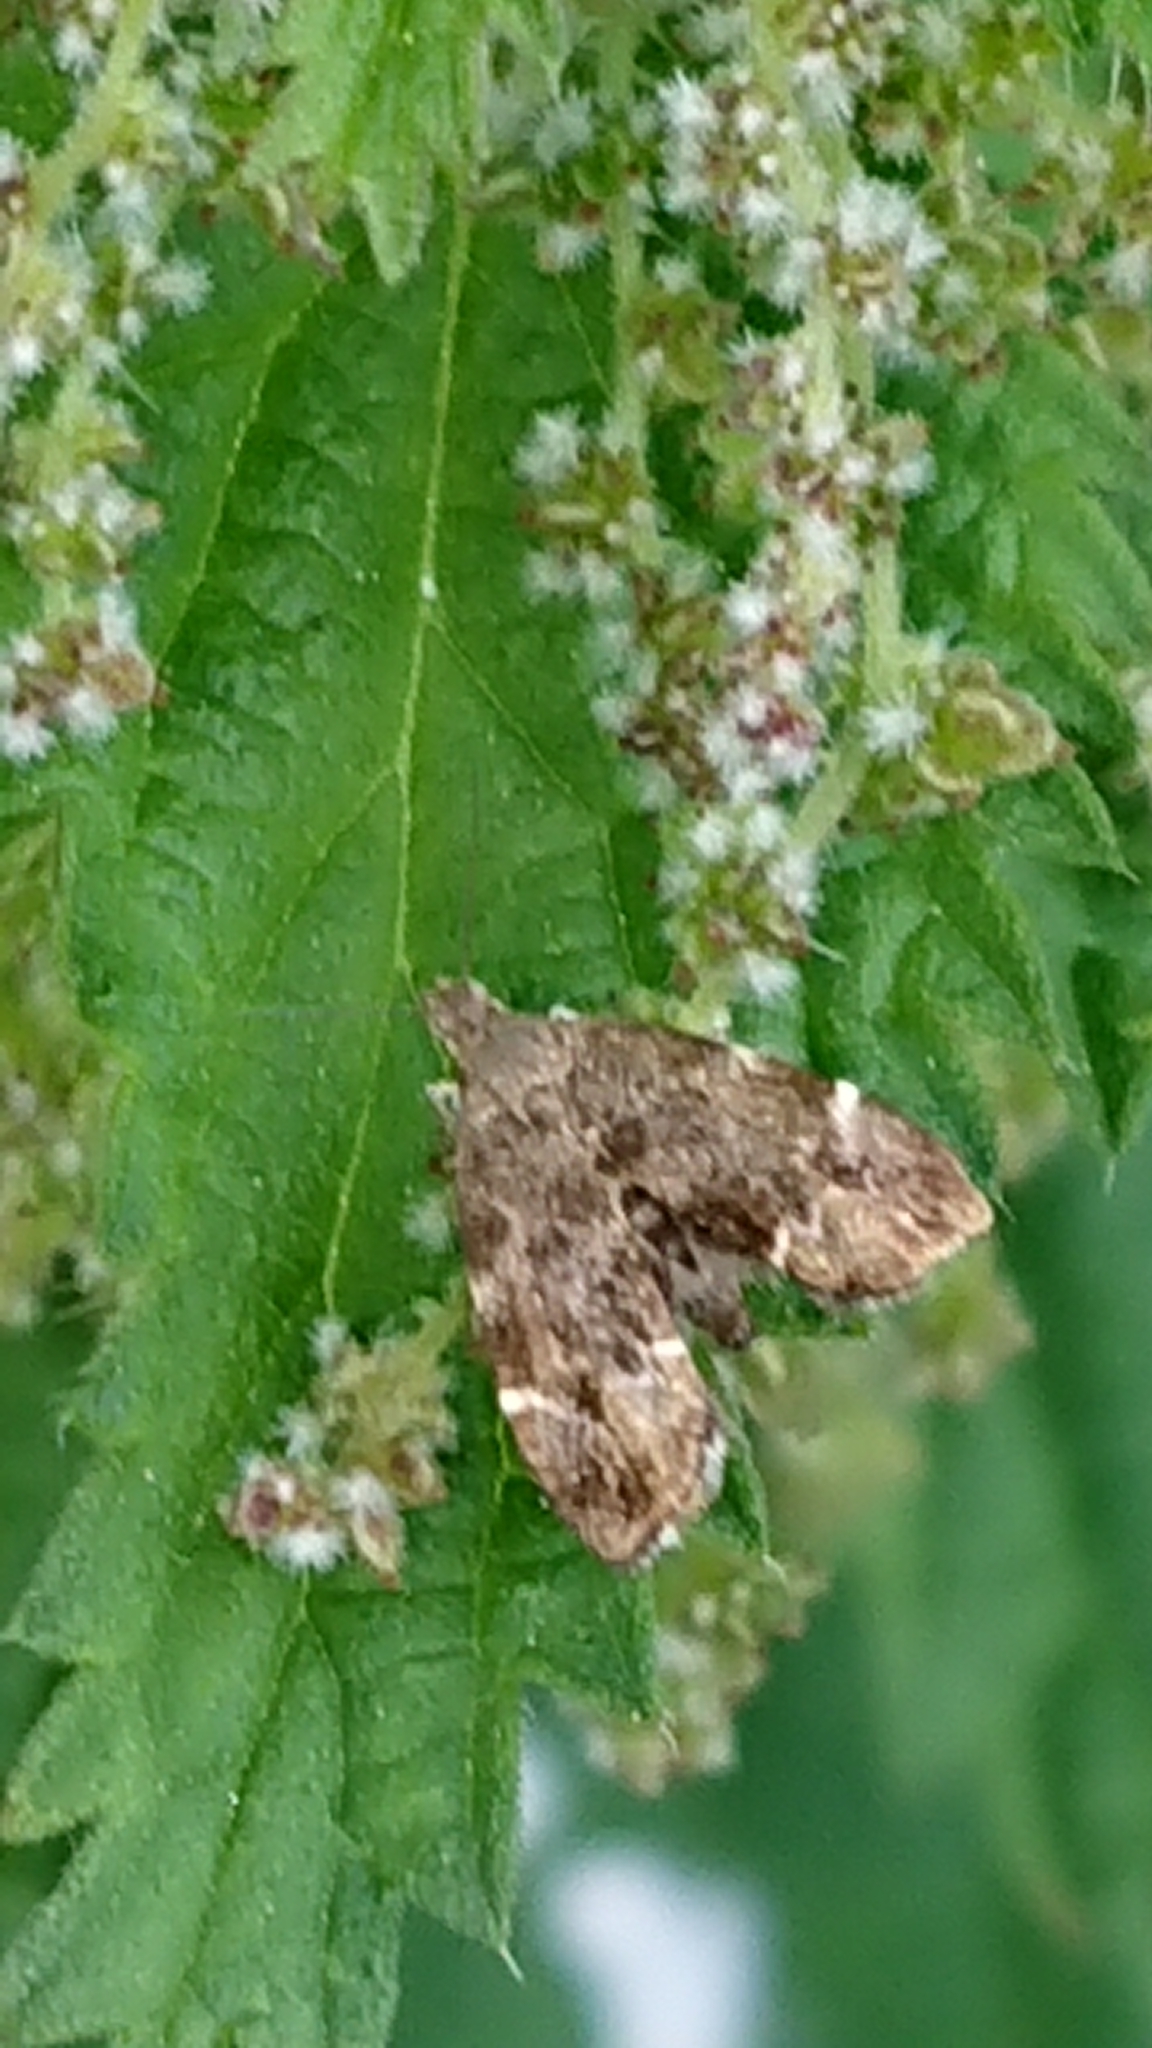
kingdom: Animalia
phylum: Arthropoda
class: Insecta
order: Lepidoptera
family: Choreutidae
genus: Anthophila
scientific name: Anthophila fabriciana
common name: Nettle-tap
